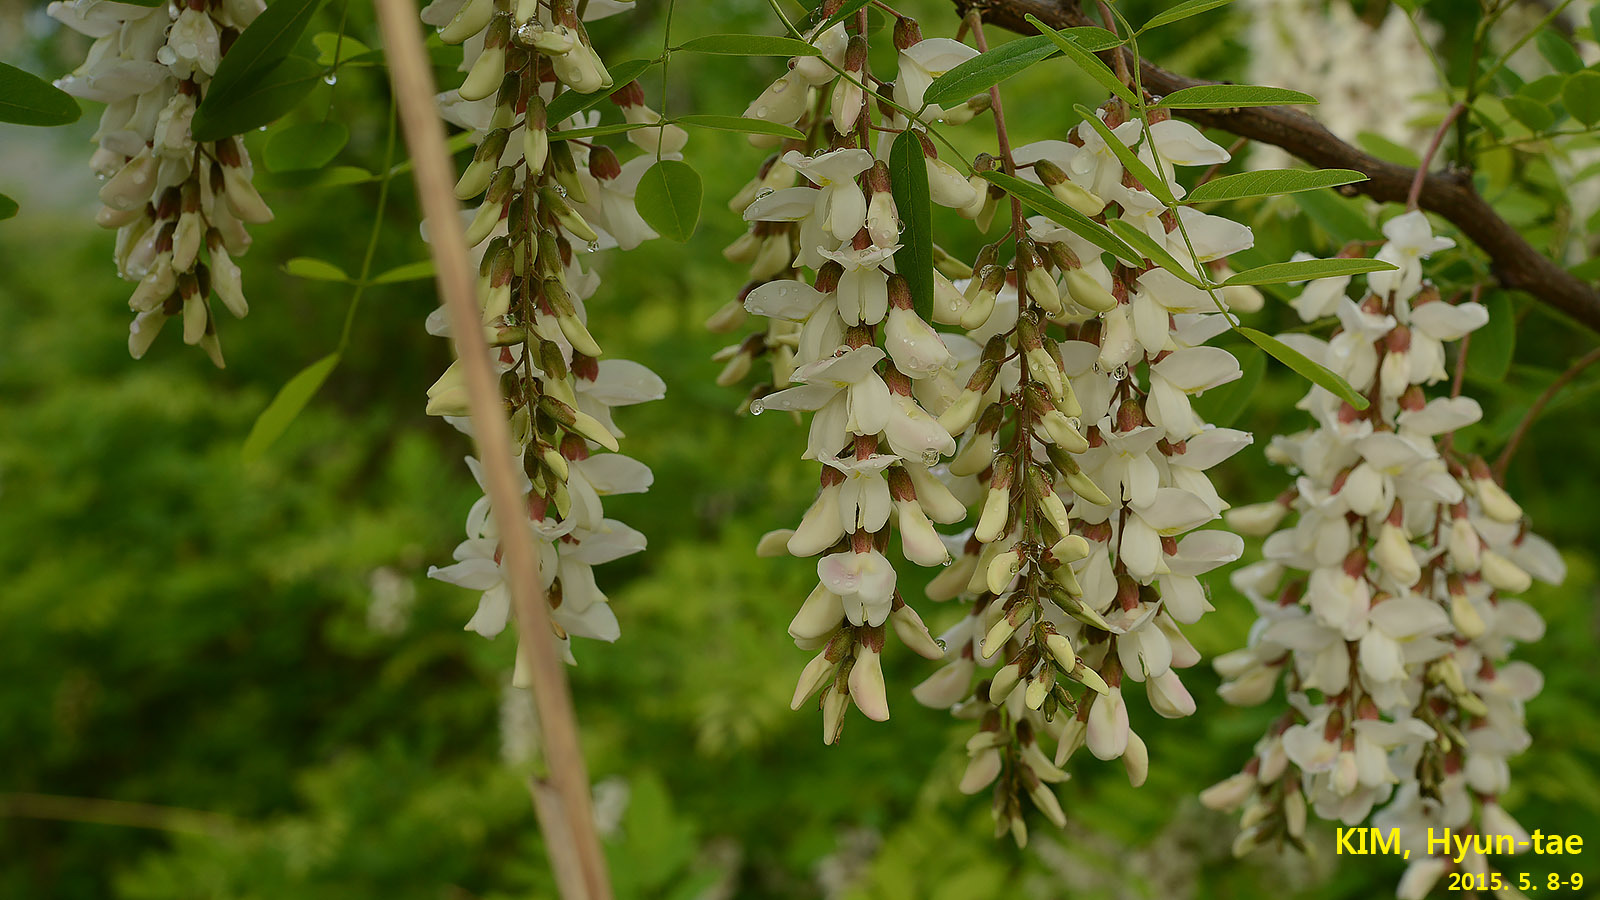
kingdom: Plantae
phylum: Tracheophyta
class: Magnoliopsida
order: Fabales
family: Fabaceae
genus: Robinia
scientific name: Robinia pseudoacacia
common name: Black locust
